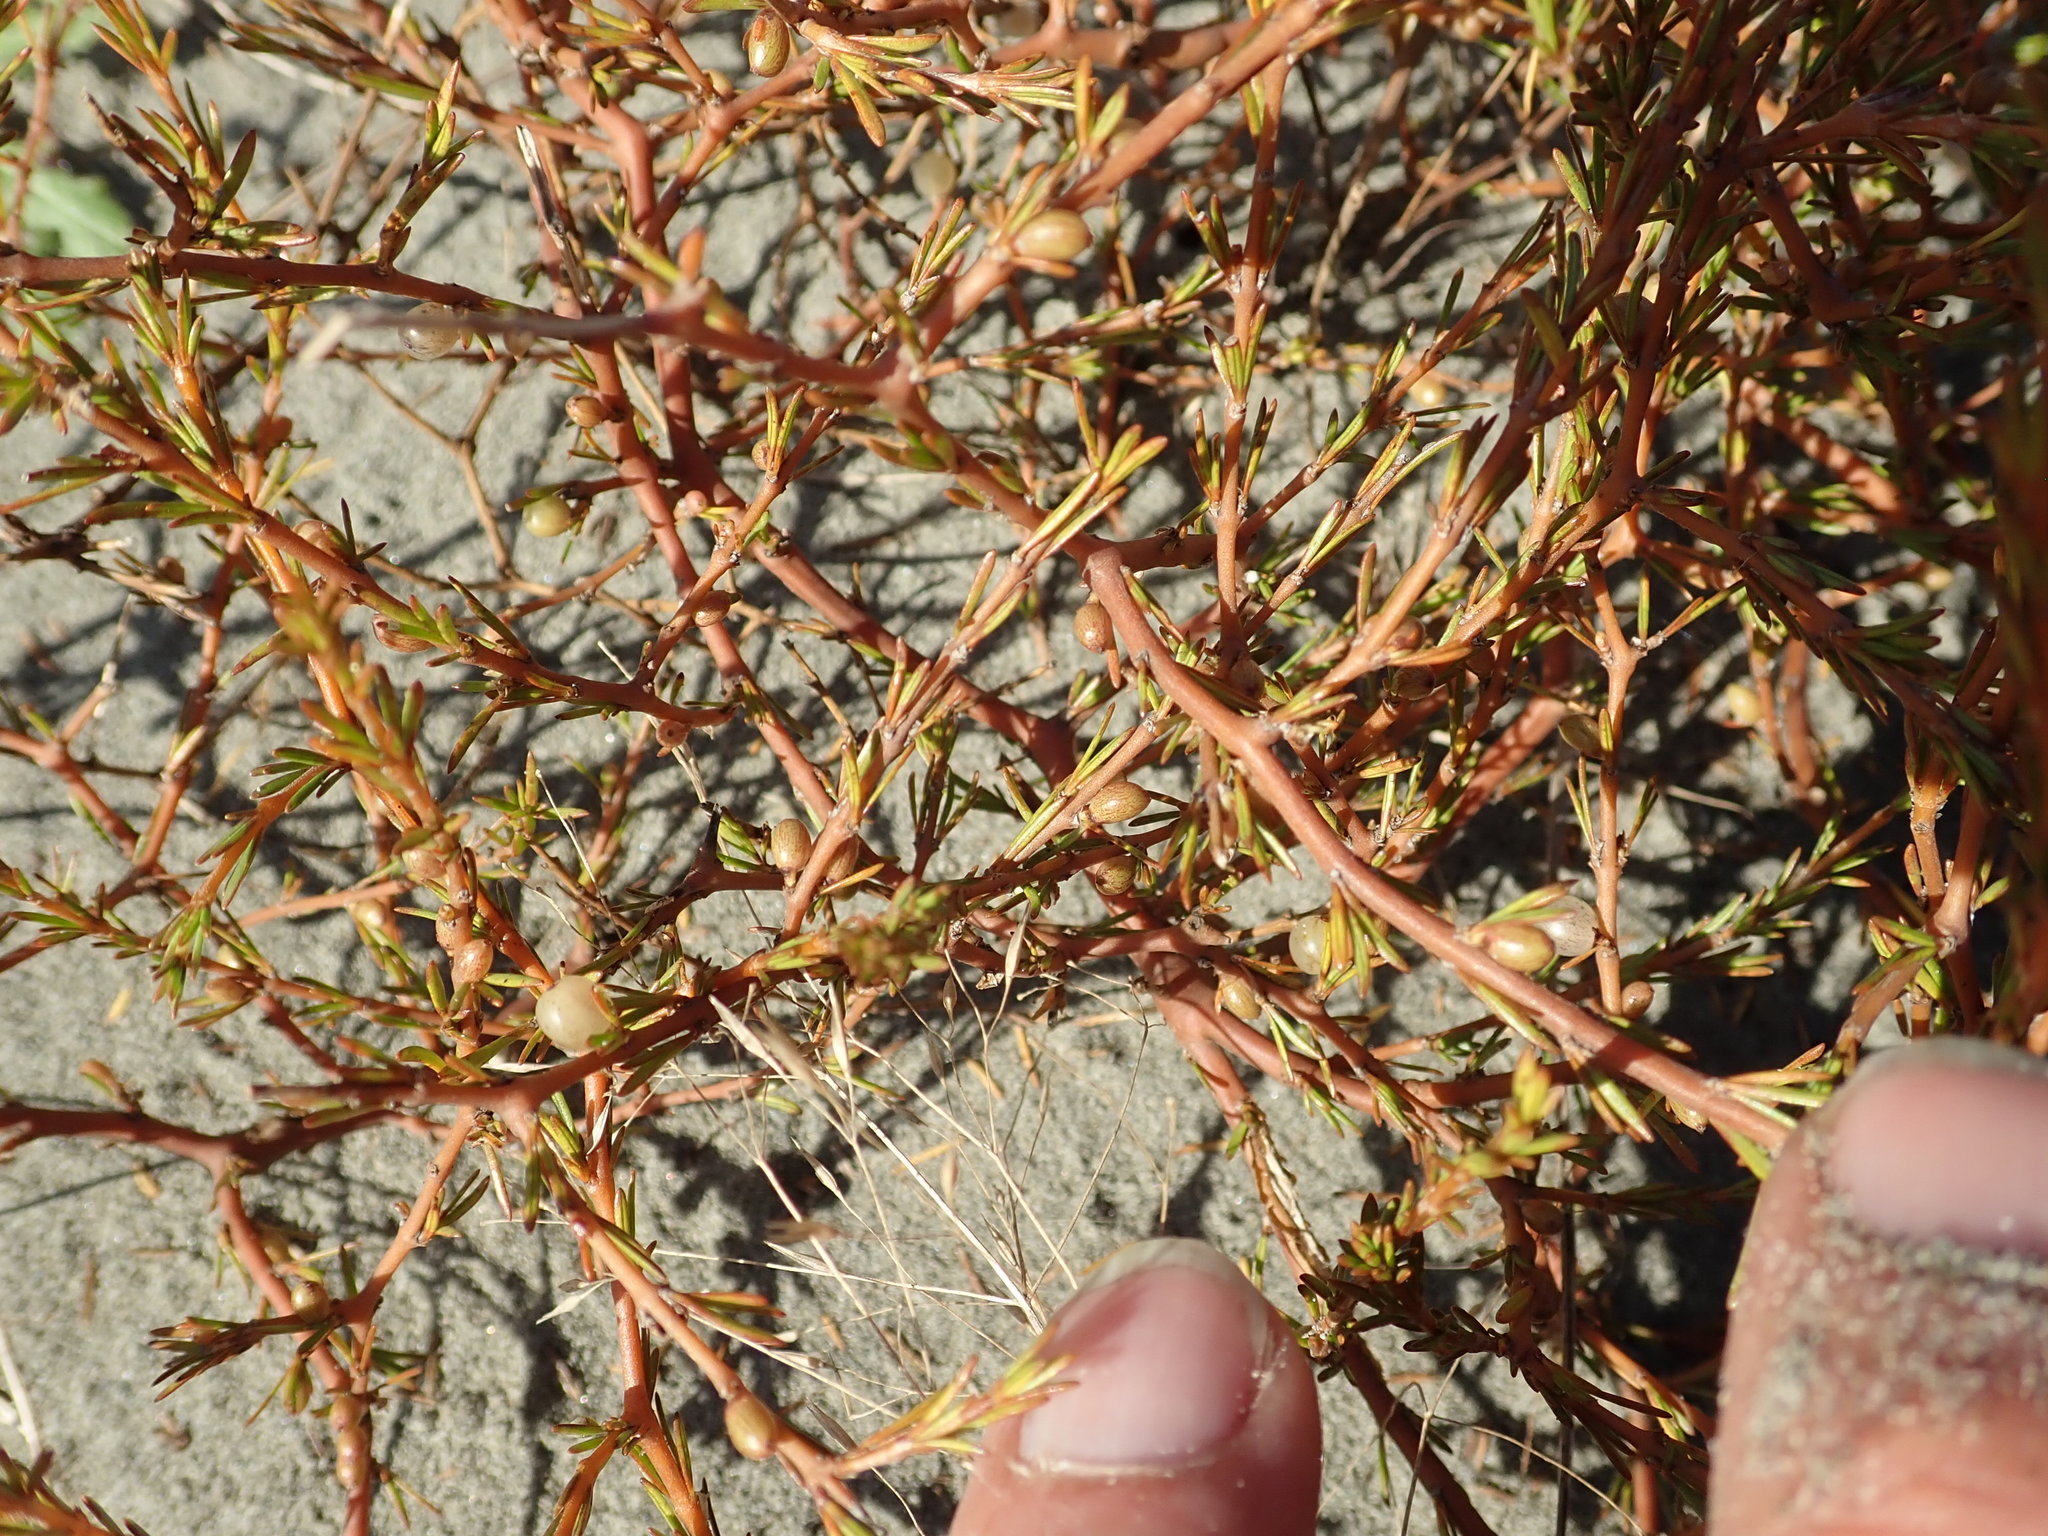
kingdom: Plantae
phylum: Tracheophyta
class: Magnoliopsida
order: Gentianales
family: Rubiaceae
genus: Coprosma
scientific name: Coprosma acerosa
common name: Sand coprosma
